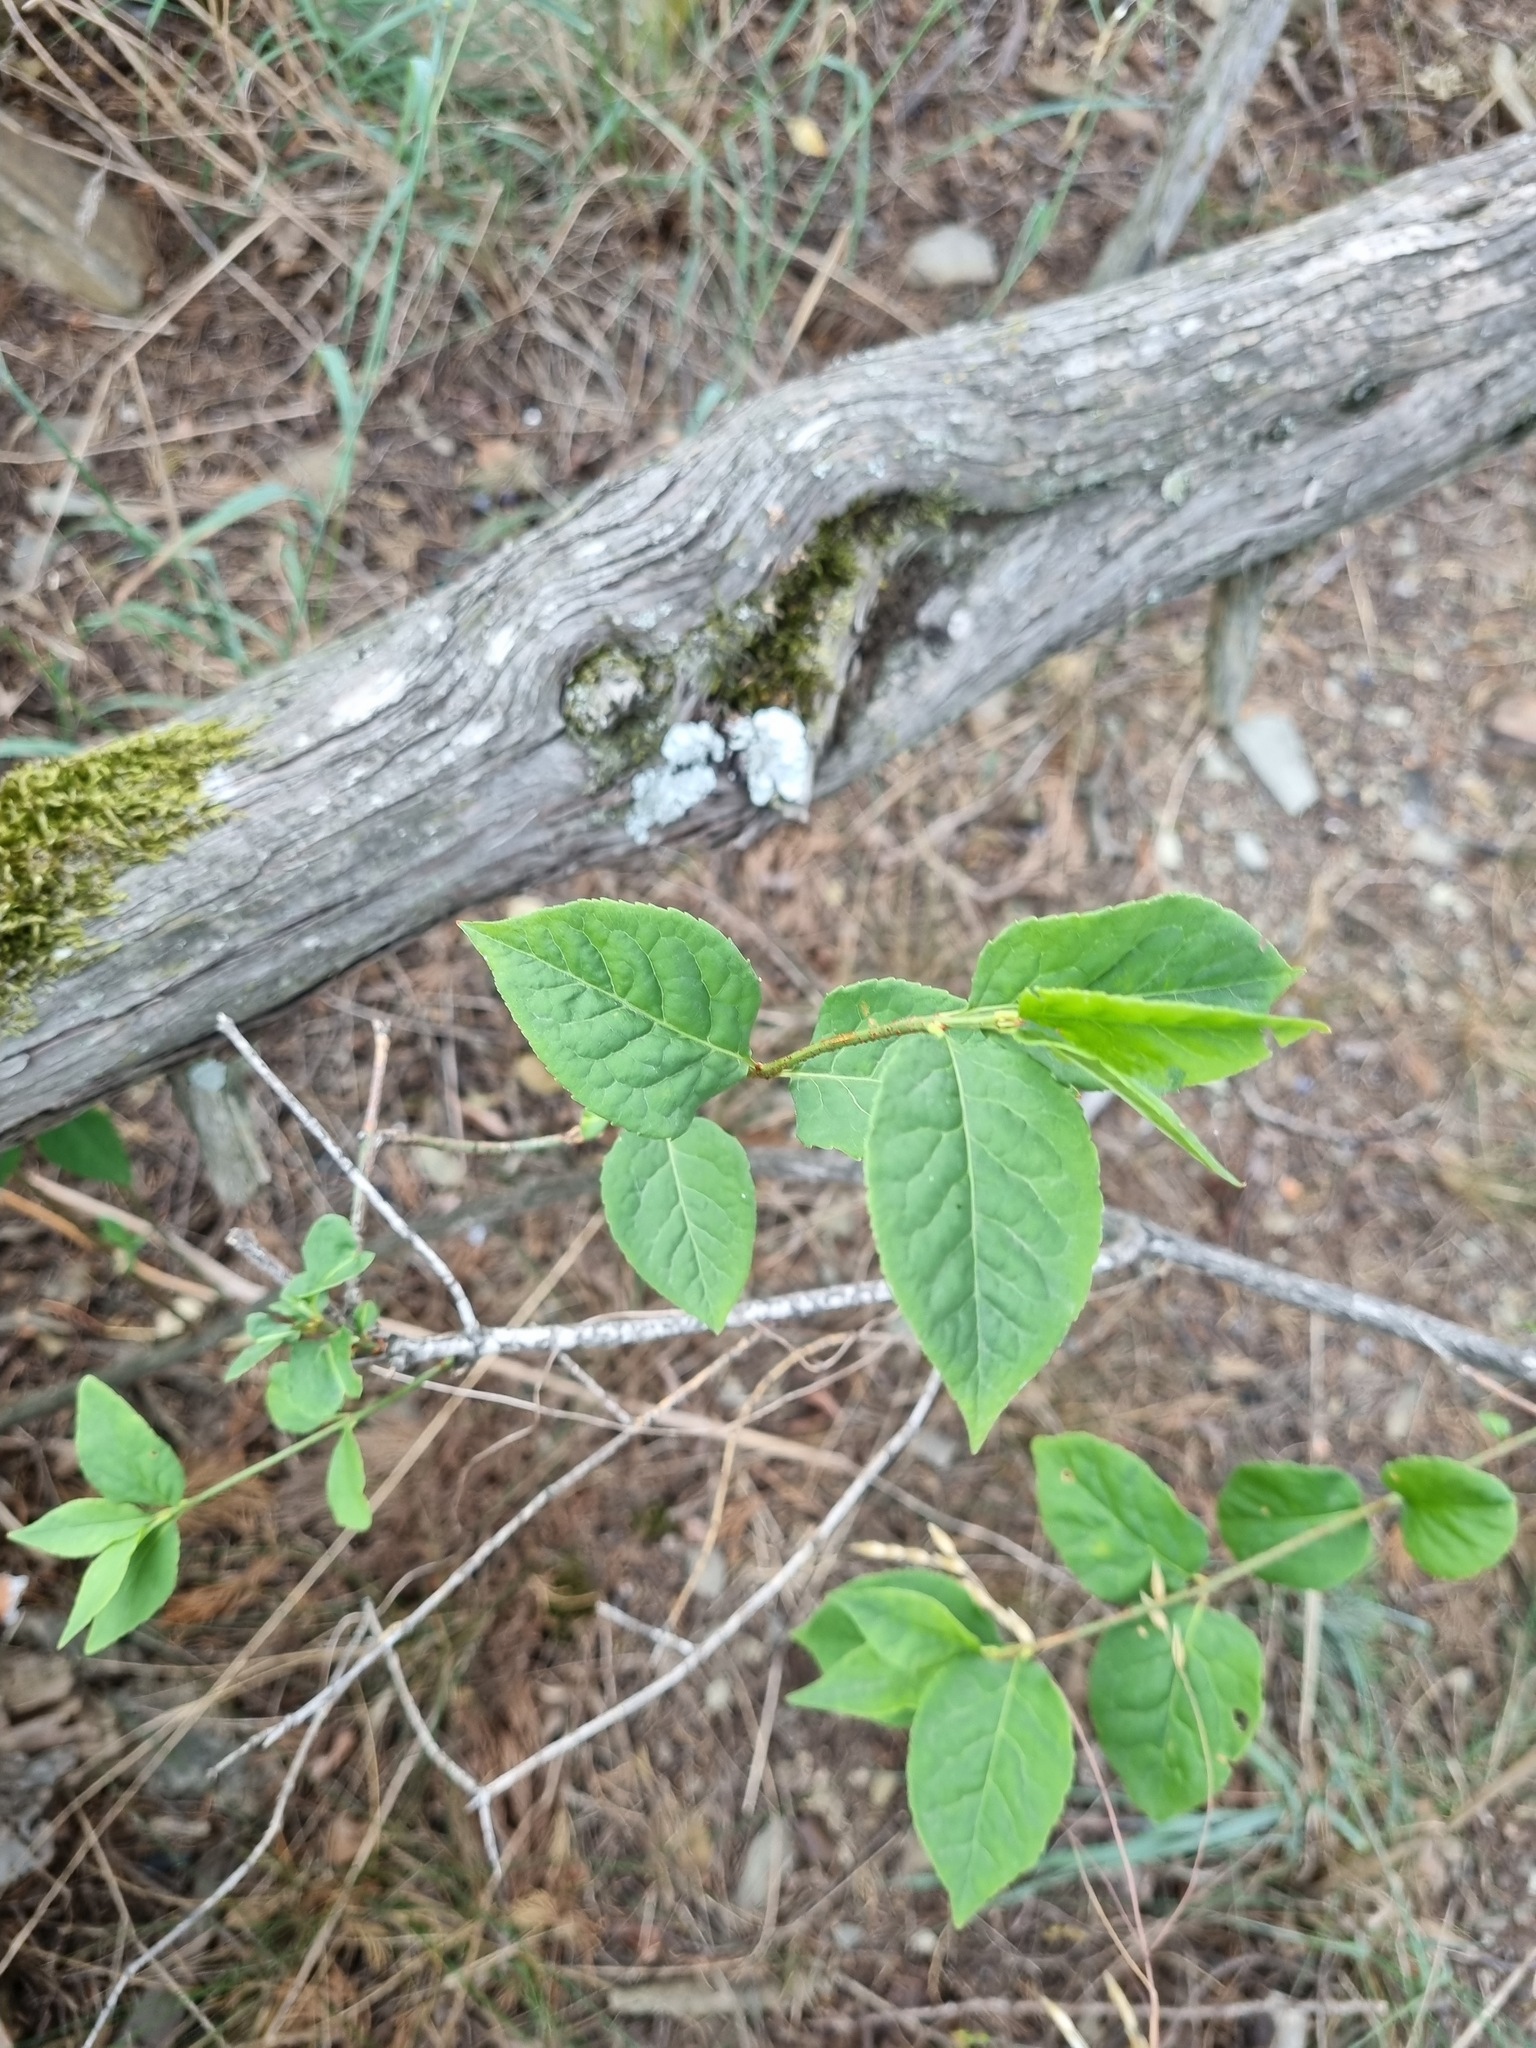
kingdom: Plantae
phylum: Tracheophyta
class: Magnoliopsida
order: Celastrales
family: Celastraceae
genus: Euonymus
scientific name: Euonymus verrucosus
